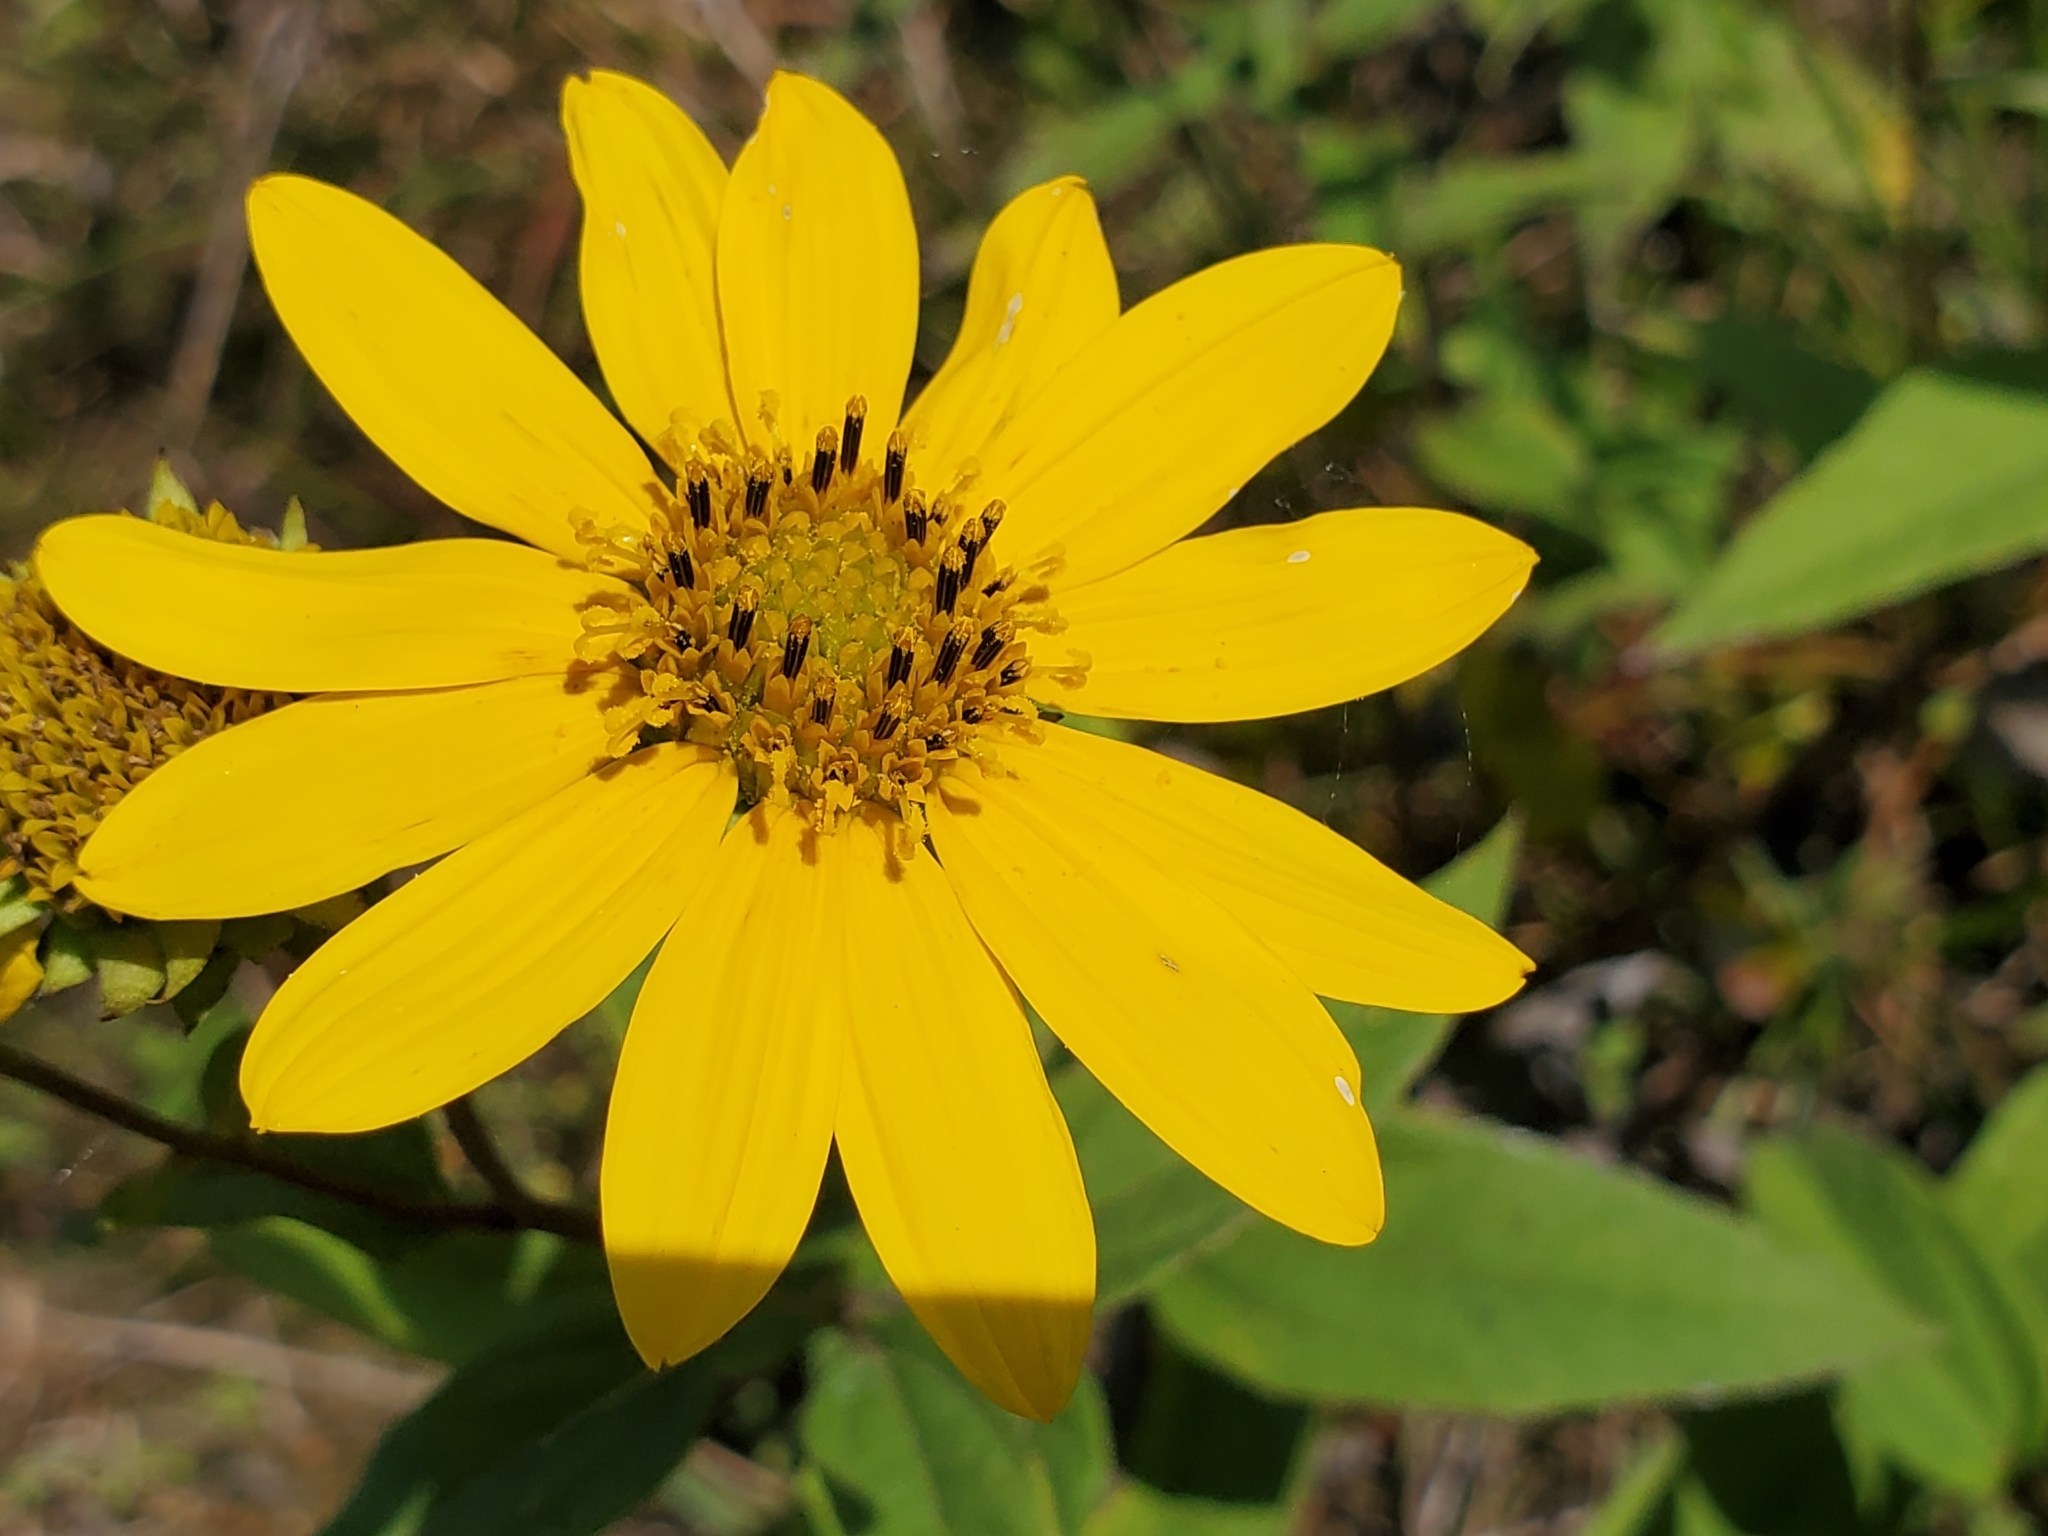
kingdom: Plantae
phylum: Tracheophyta
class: Magnoliopsida
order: Asterales
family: Asteraceae
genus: Helianthus
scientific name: Helianthus hirsutus
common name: Hairy sunflower
